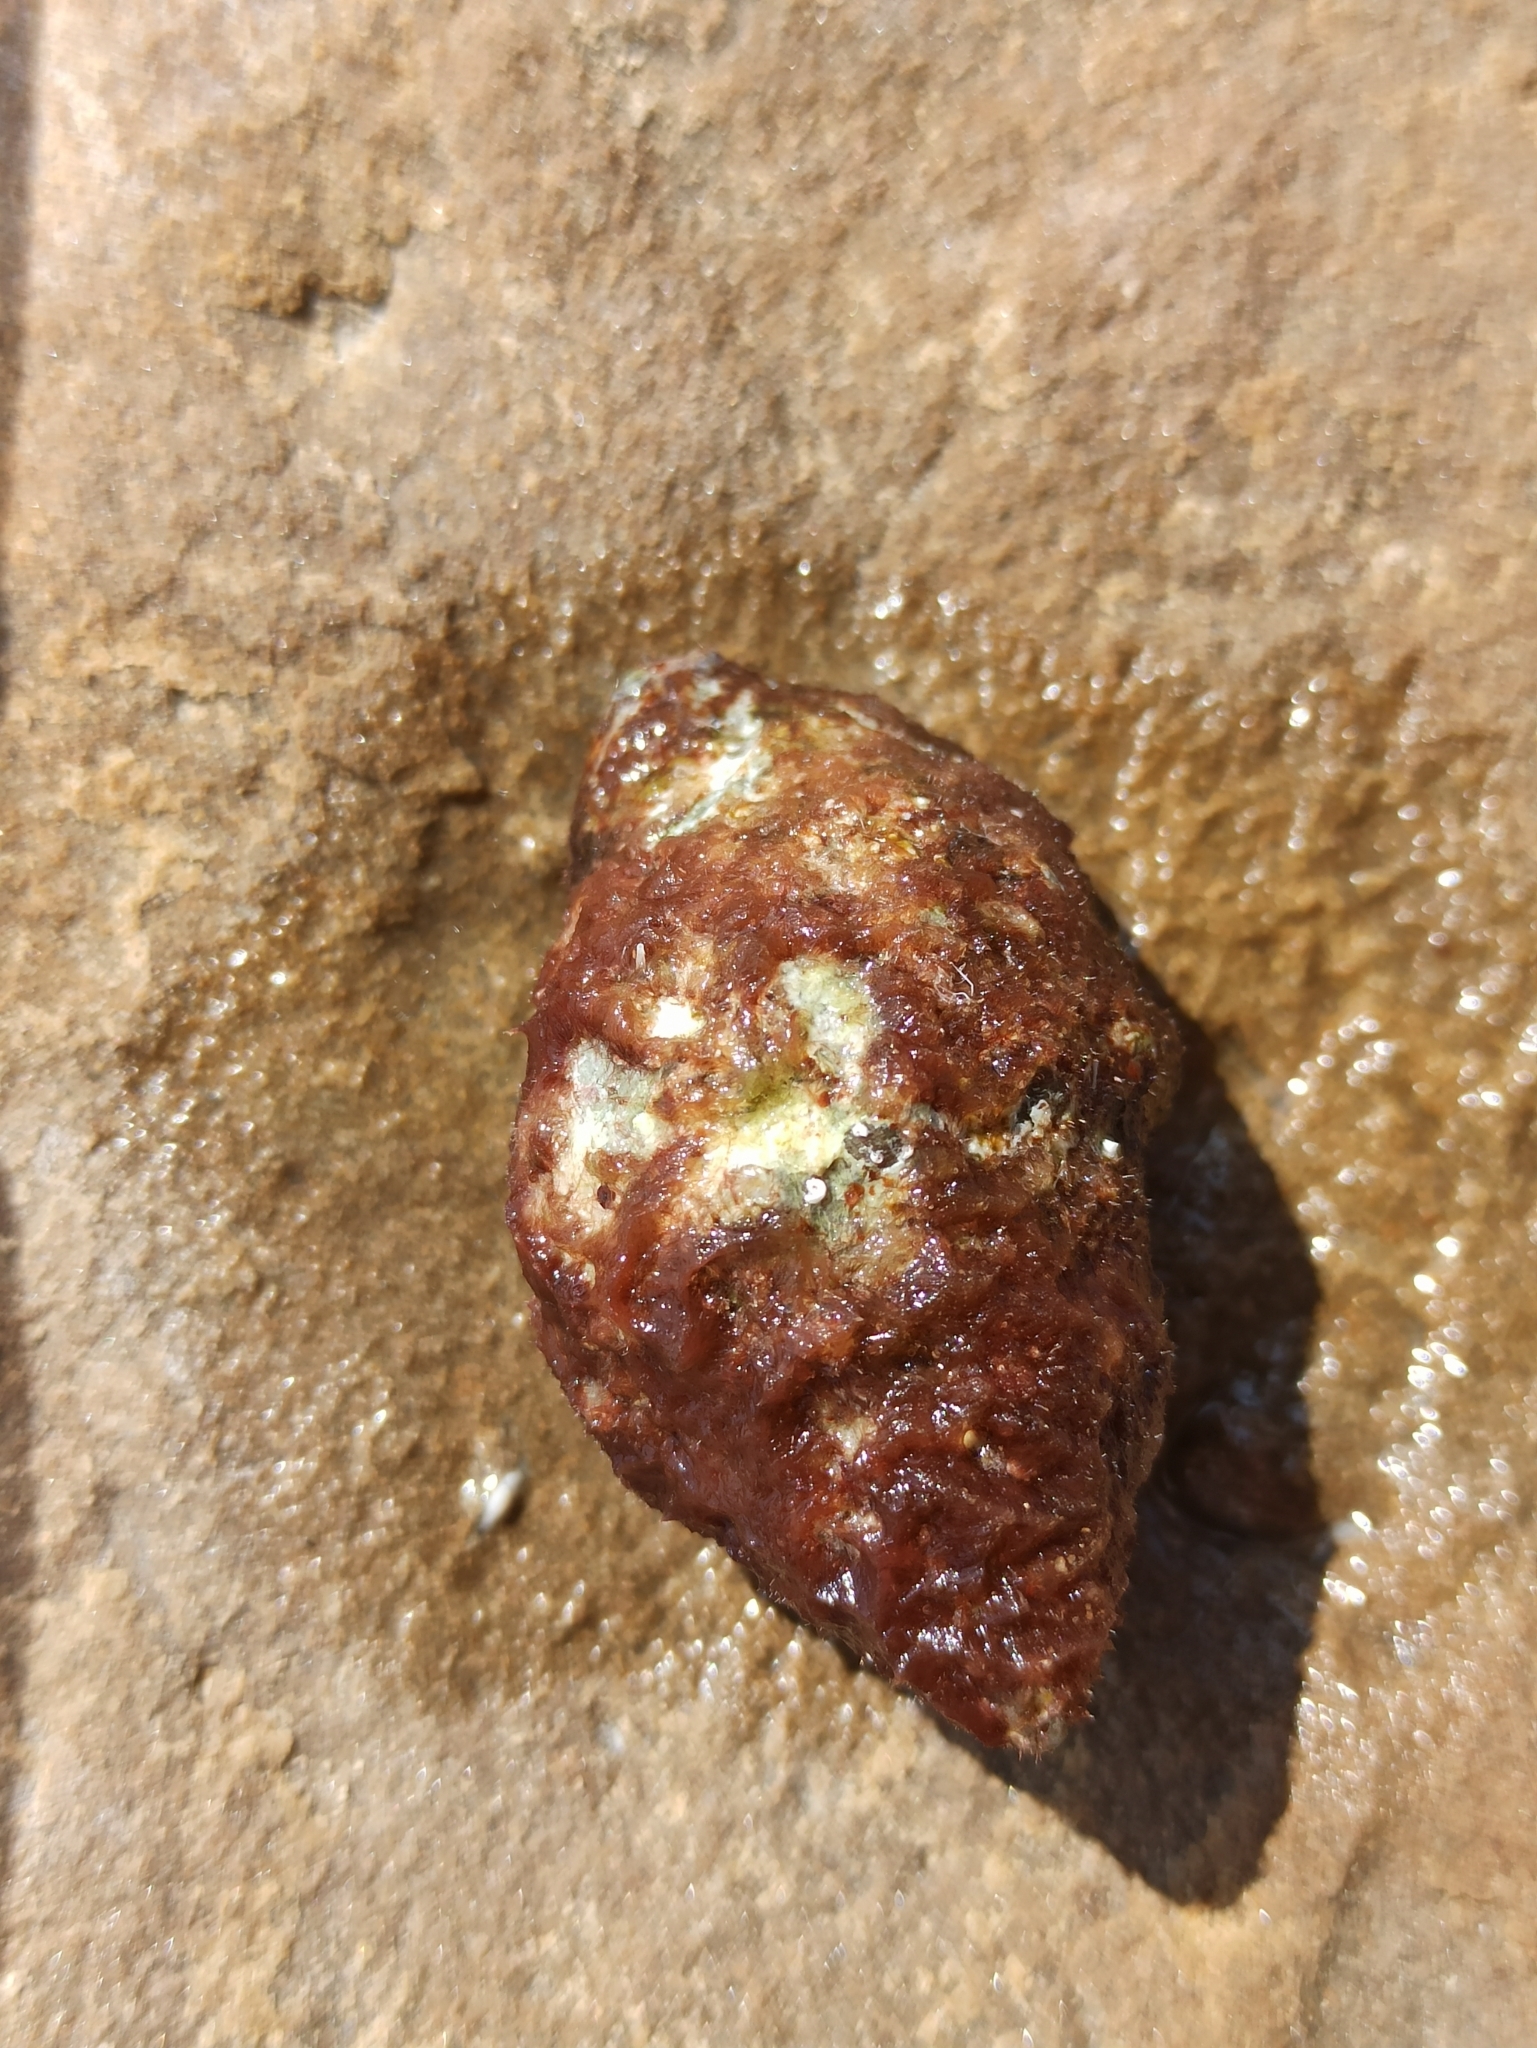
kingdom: Animalia
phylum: Mollusca
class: Gastropoda
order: Neogastropoda
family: Muricidae
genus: Stramonita
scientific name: Stramonita haemastoma
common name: Florida dog winkle
